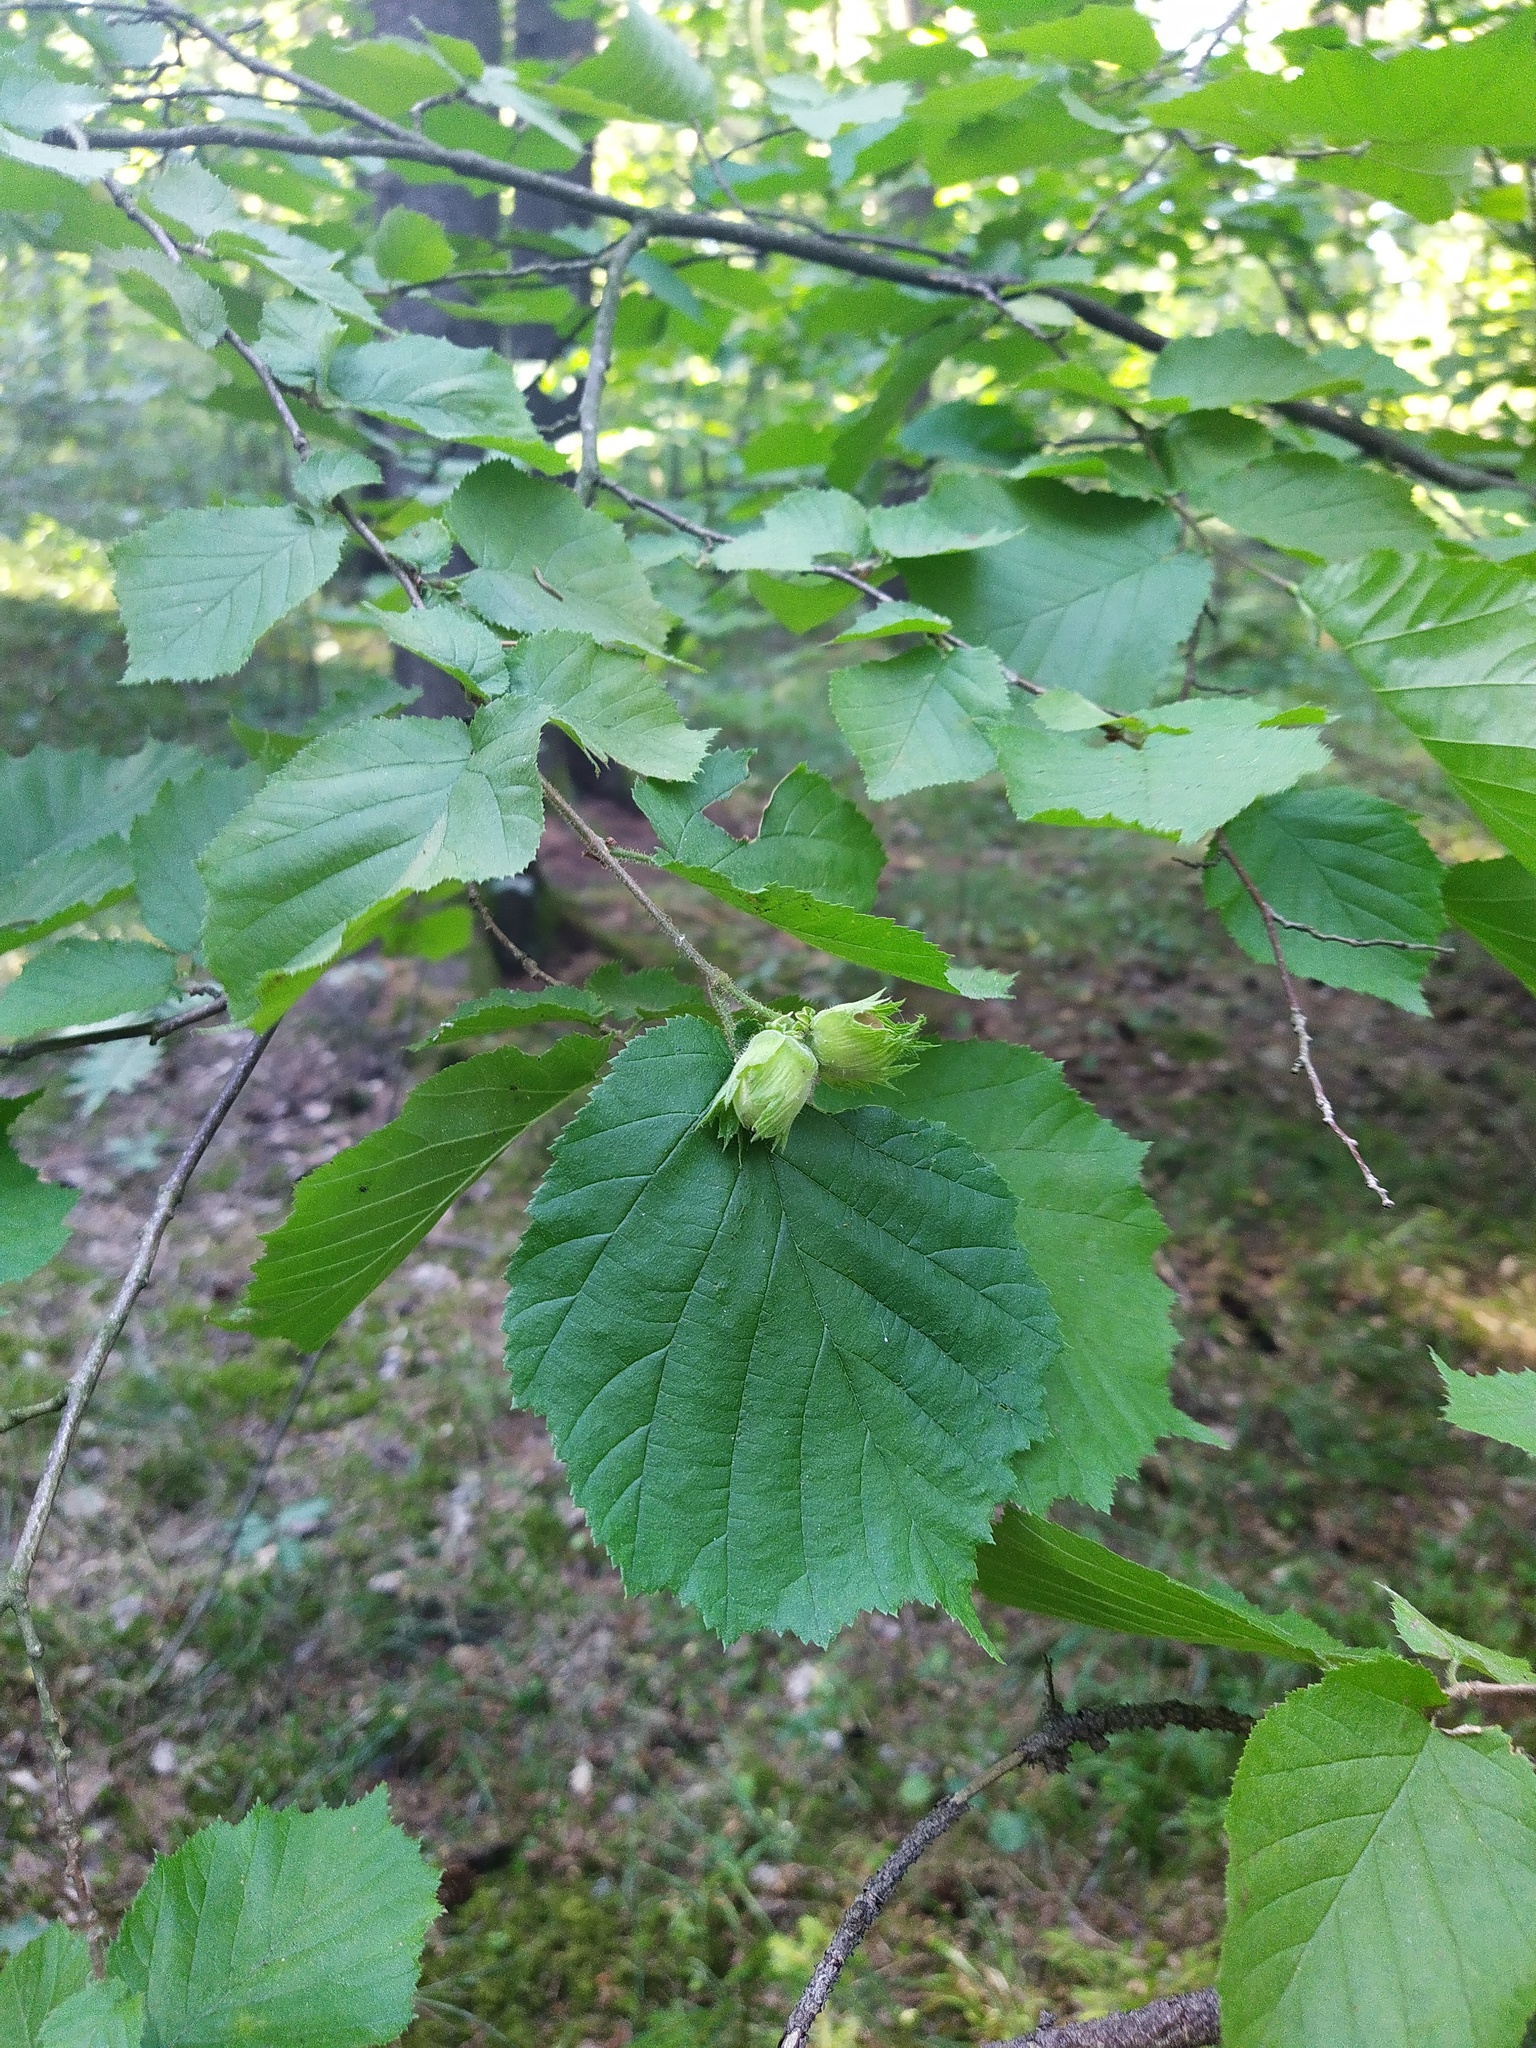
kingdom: Plantae
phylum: Tracheophyta
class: Magnoliopsida
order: Fagales
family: Betulaceae
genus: Corylus
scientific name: Corylus avellana
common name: European hazel
